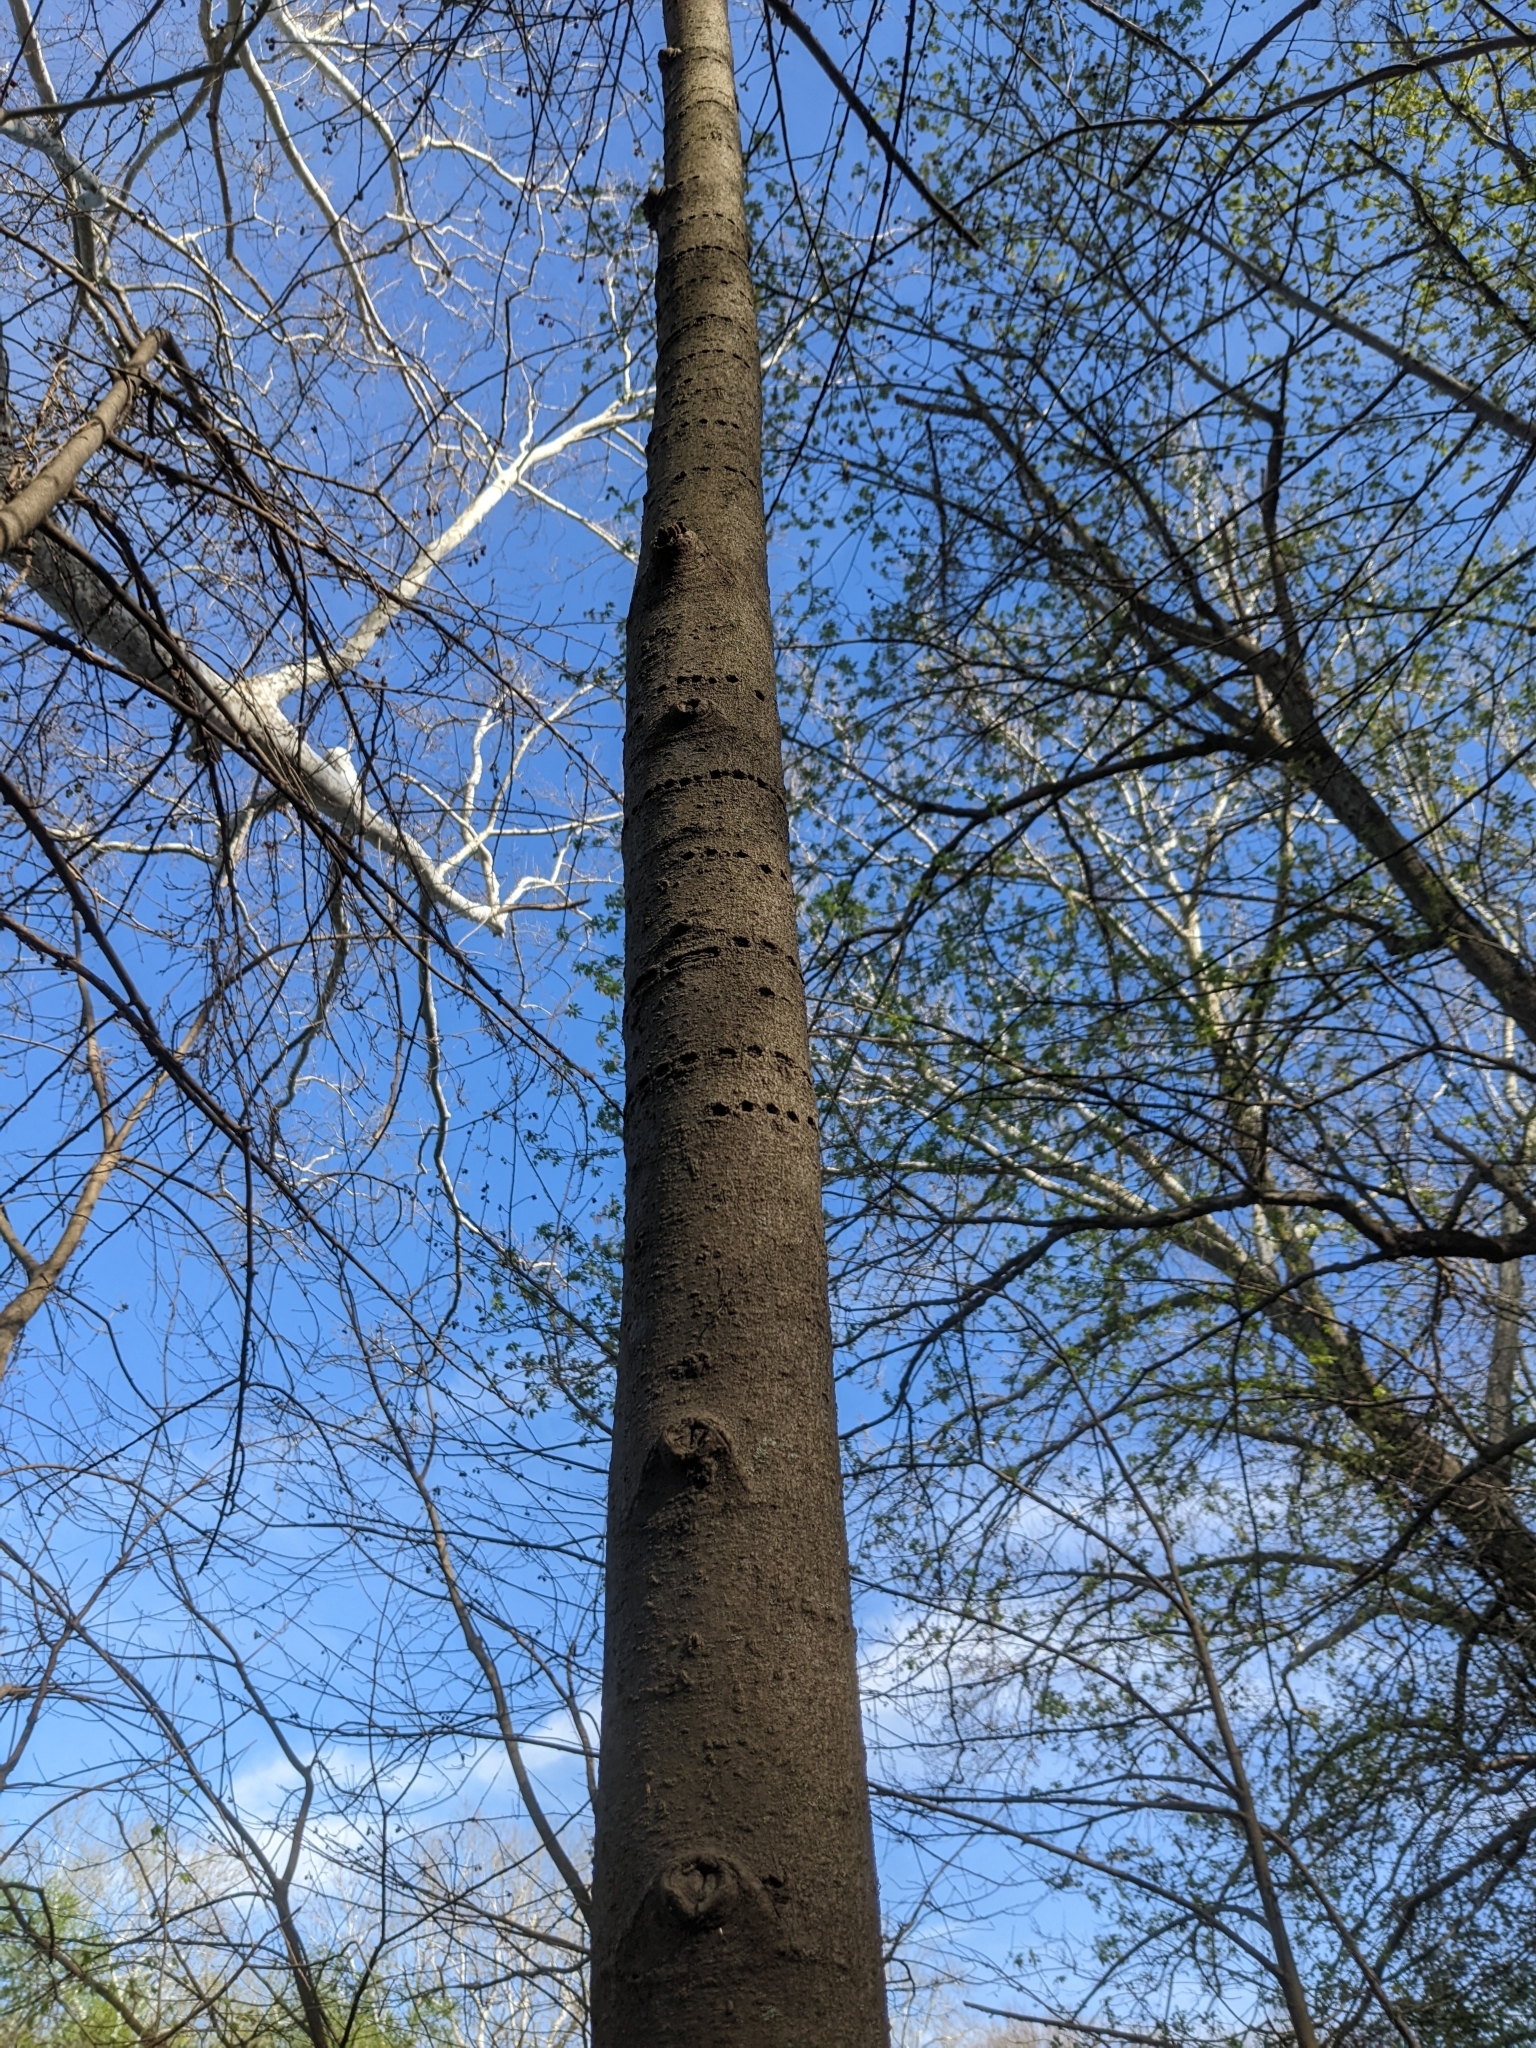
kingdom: Animalia
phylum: Chordata
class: Aves
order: Piciformes
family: Picidae
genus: Sphyrapicus
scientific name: Sphyrapicus varius
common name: Yellow-bellied sapsucker
